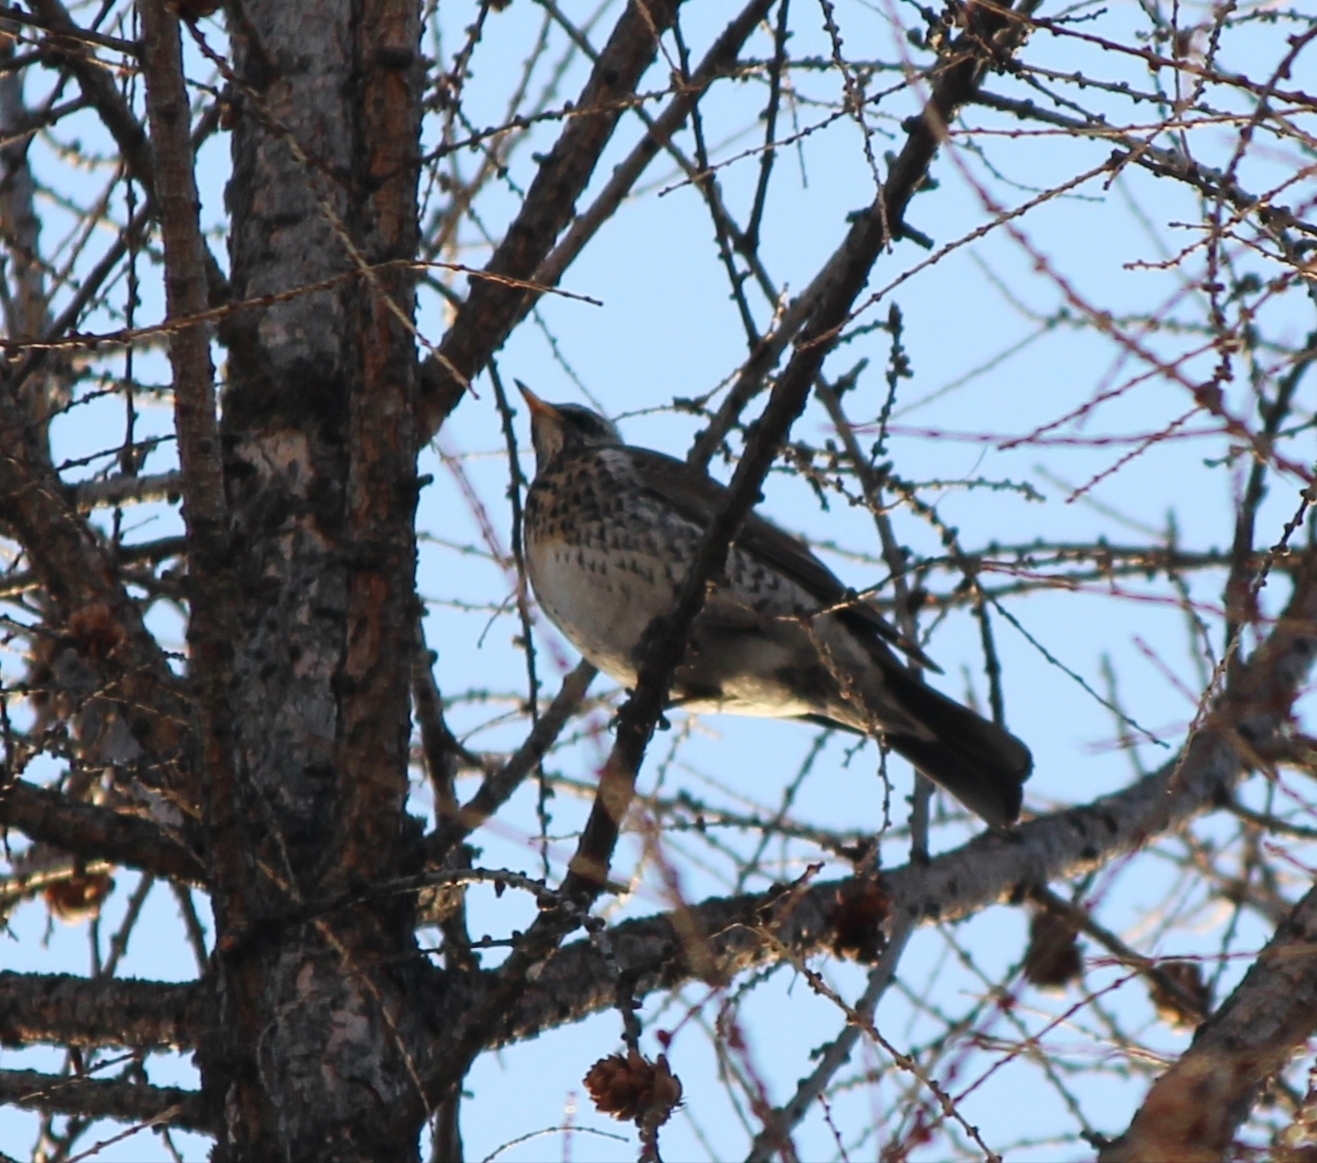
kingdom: Animalia
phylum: Chordata
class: Aves
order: Passeriformes
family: Turdidae
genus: Turdus
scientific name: Turdus pilaris
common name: Fieldfare
